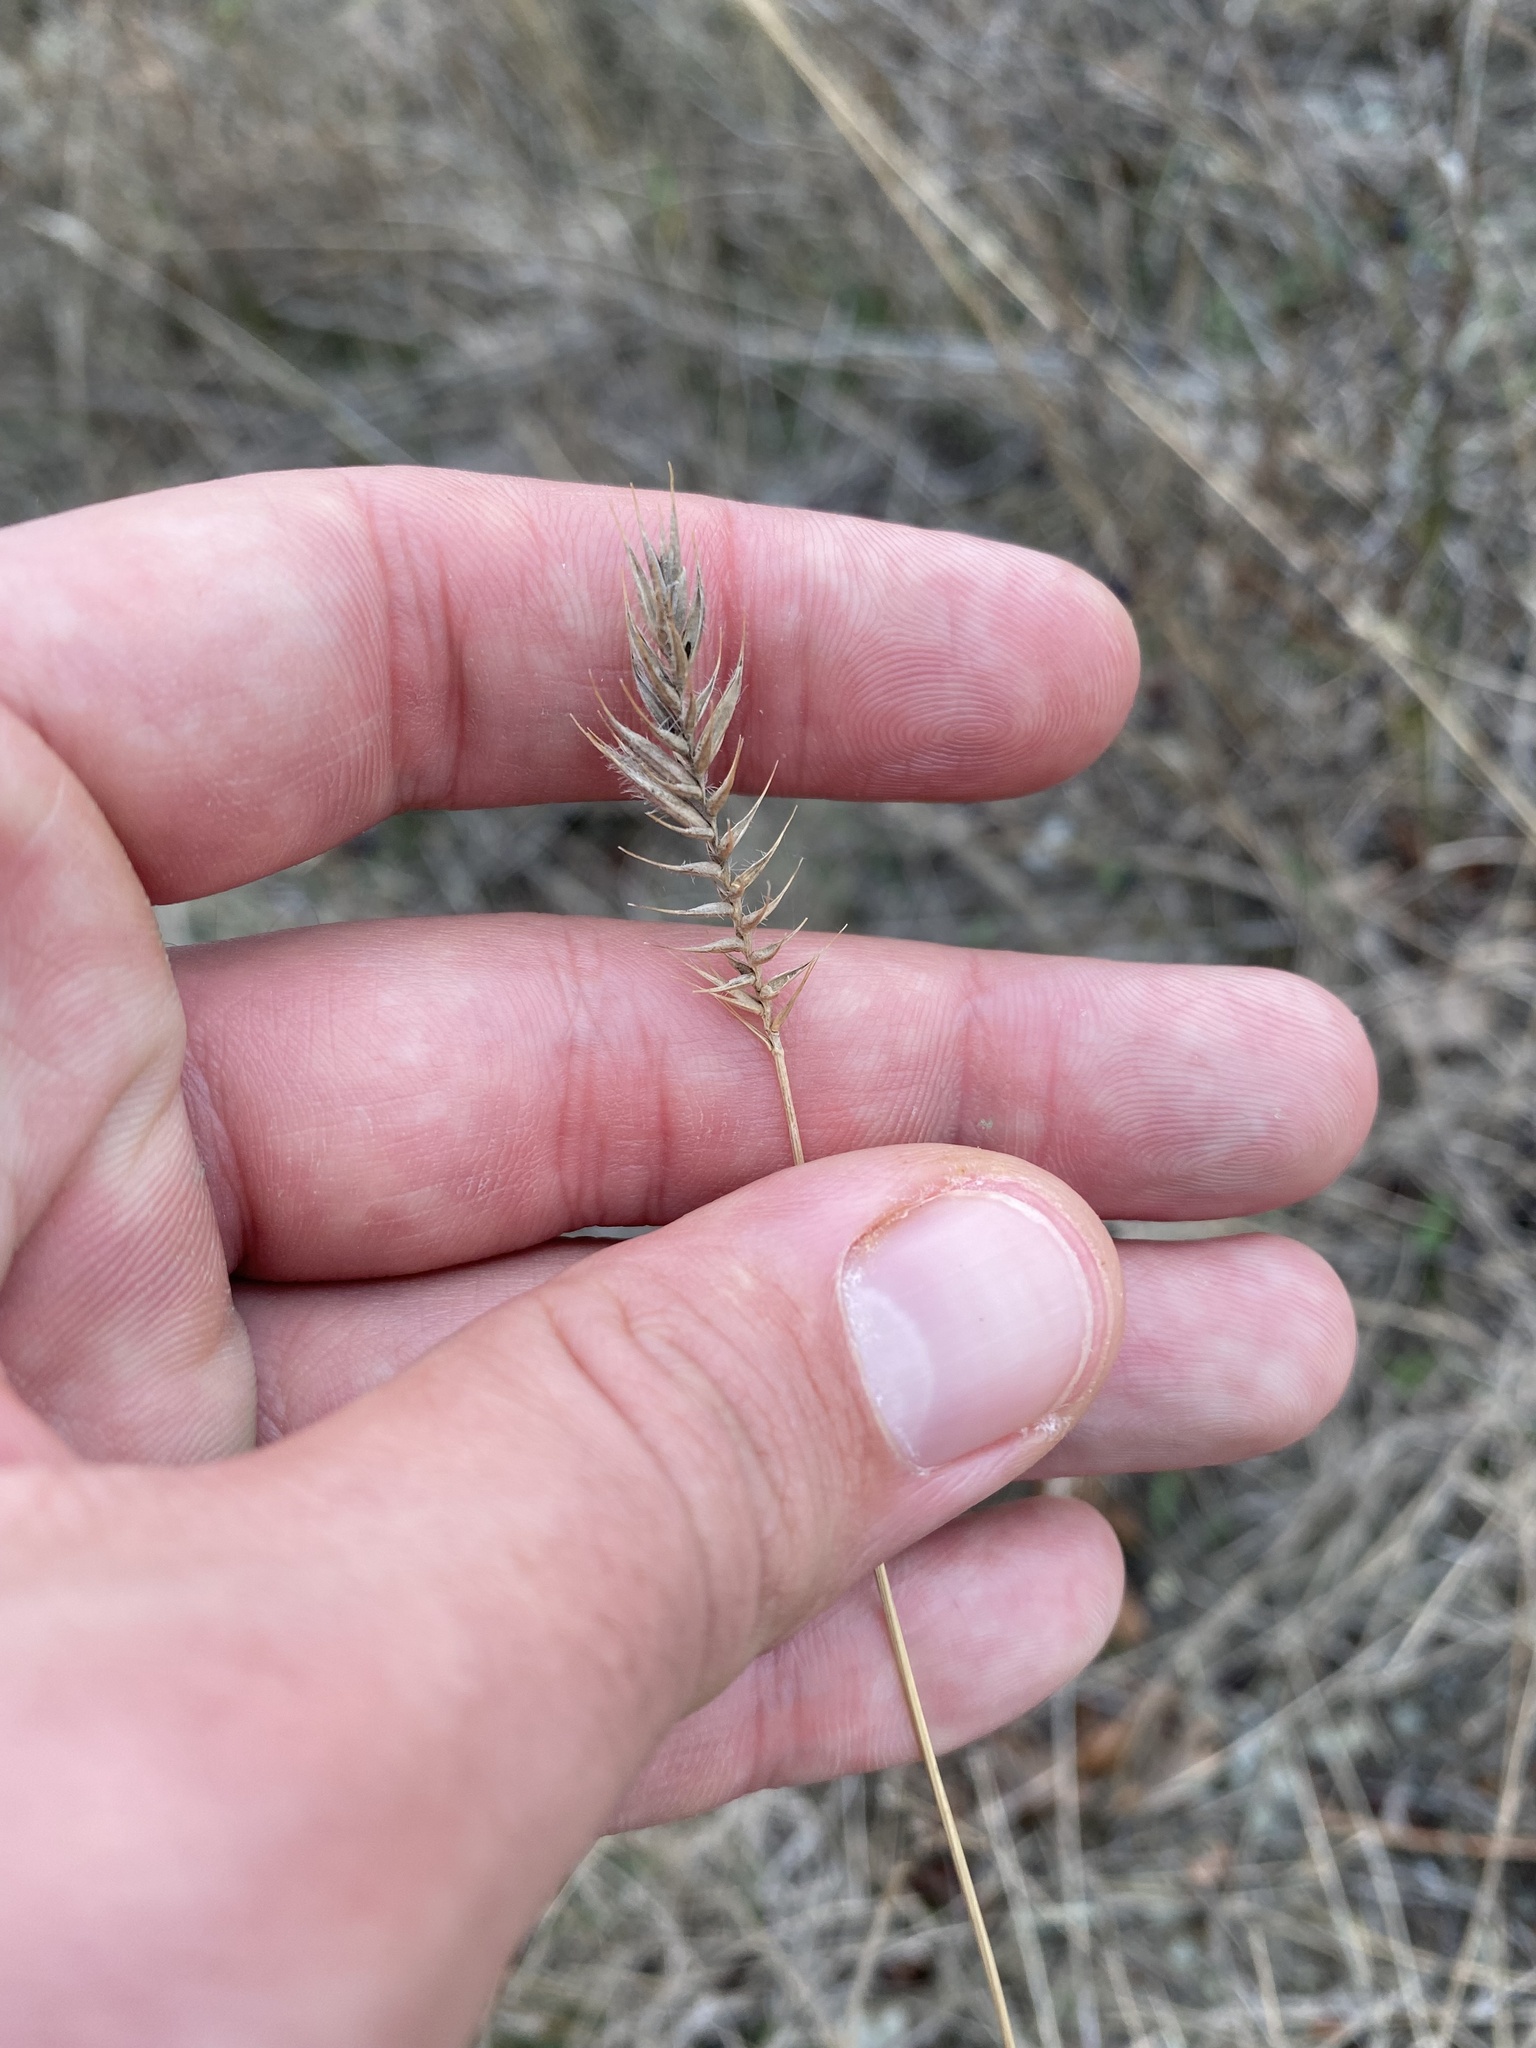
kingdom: Plantae
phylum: Tracheophyta
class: Liliopsida
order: Poales
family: Poaceae
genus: Agropyron
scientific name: Agropyron cristatum
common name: Crested wheatgrass
